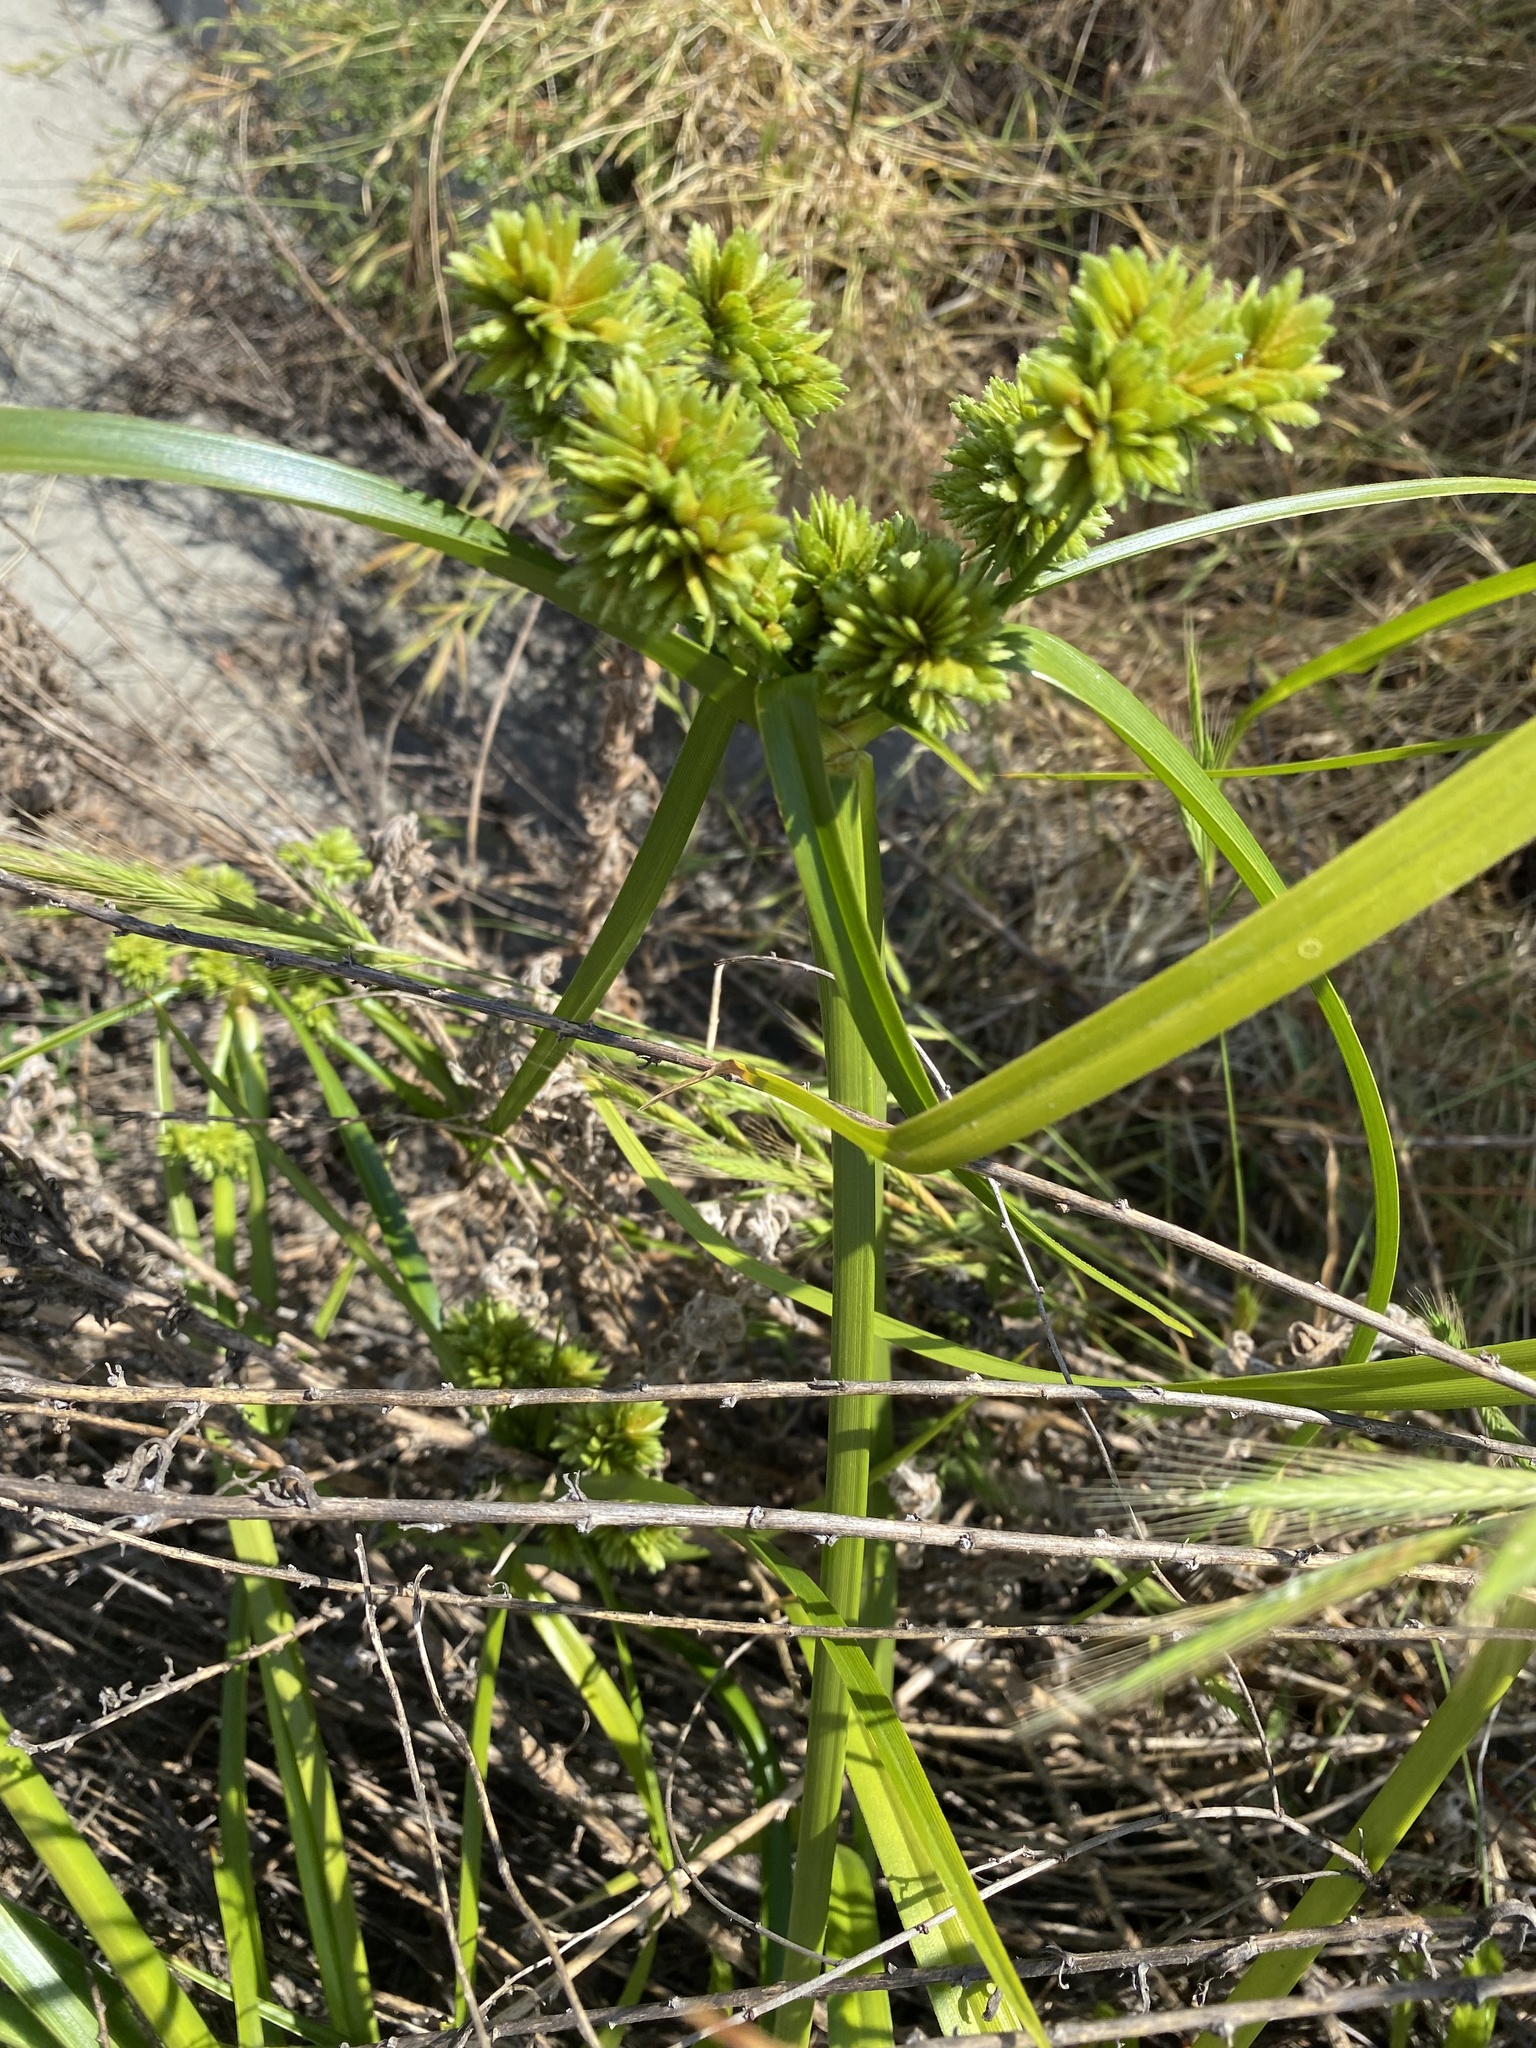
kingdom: Plantae
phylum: Tracheophyta
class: Liliopsida
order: Poales
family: Cyperaceae
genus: Cyperus
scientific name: Cyperus eragrostis
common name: Tall flatsedge
